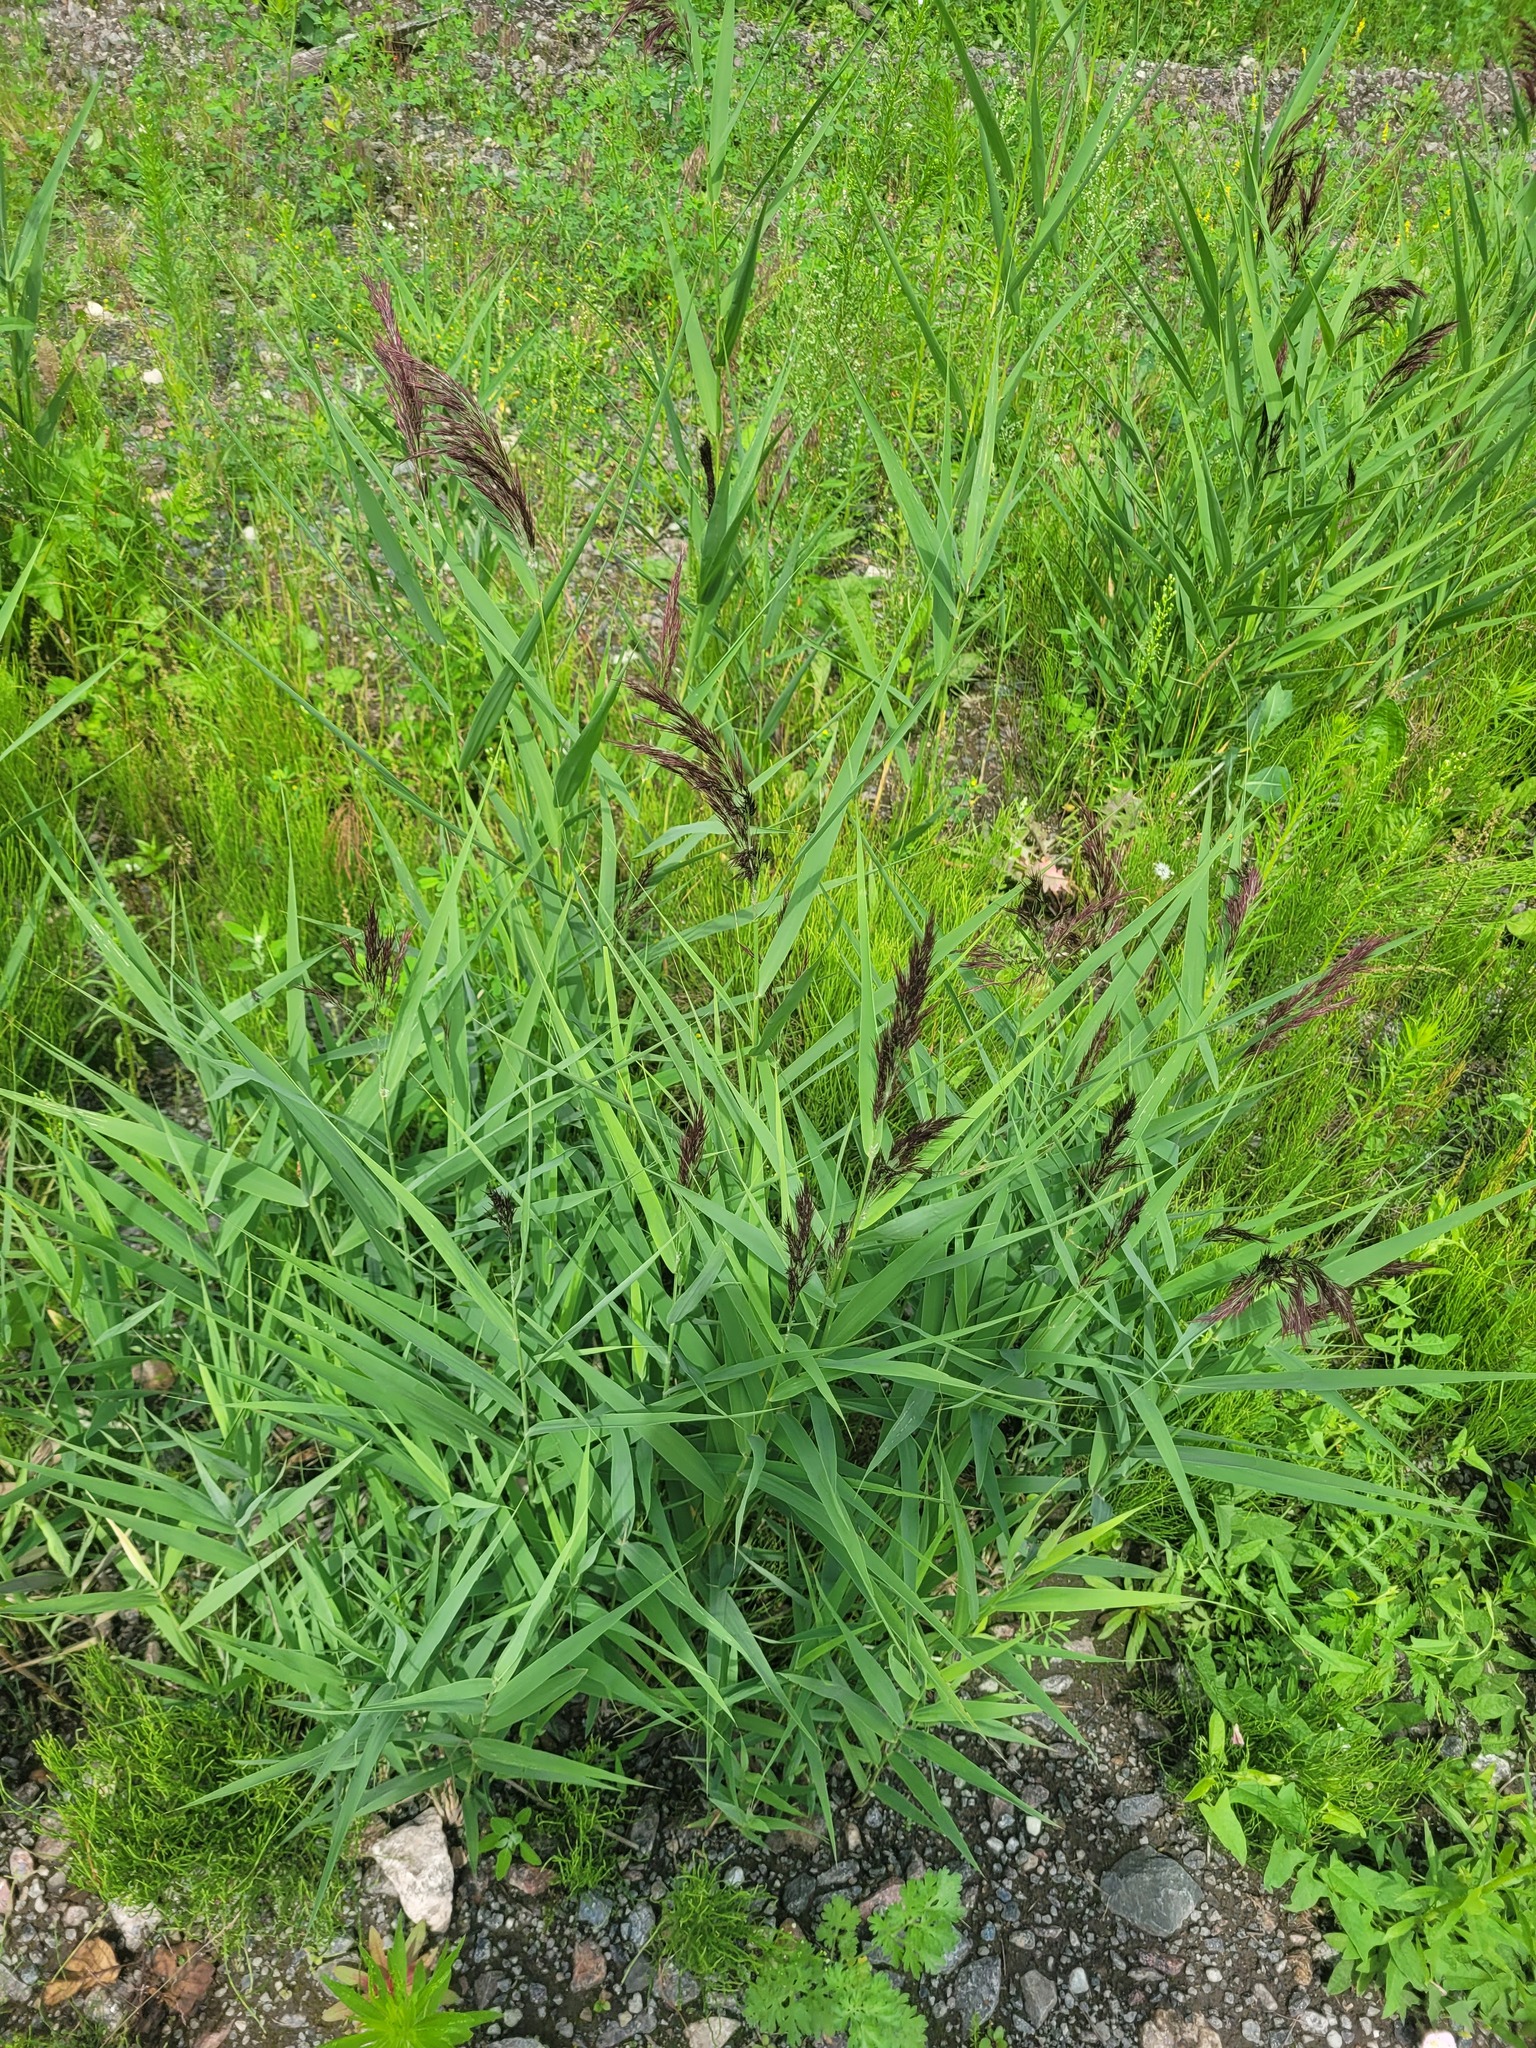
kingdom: Plantae
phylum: Tracheophyta
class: Liliopsida
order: Poales
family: Poaceae
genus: Phragmites
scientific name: Phragmites australis
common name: Common reed
